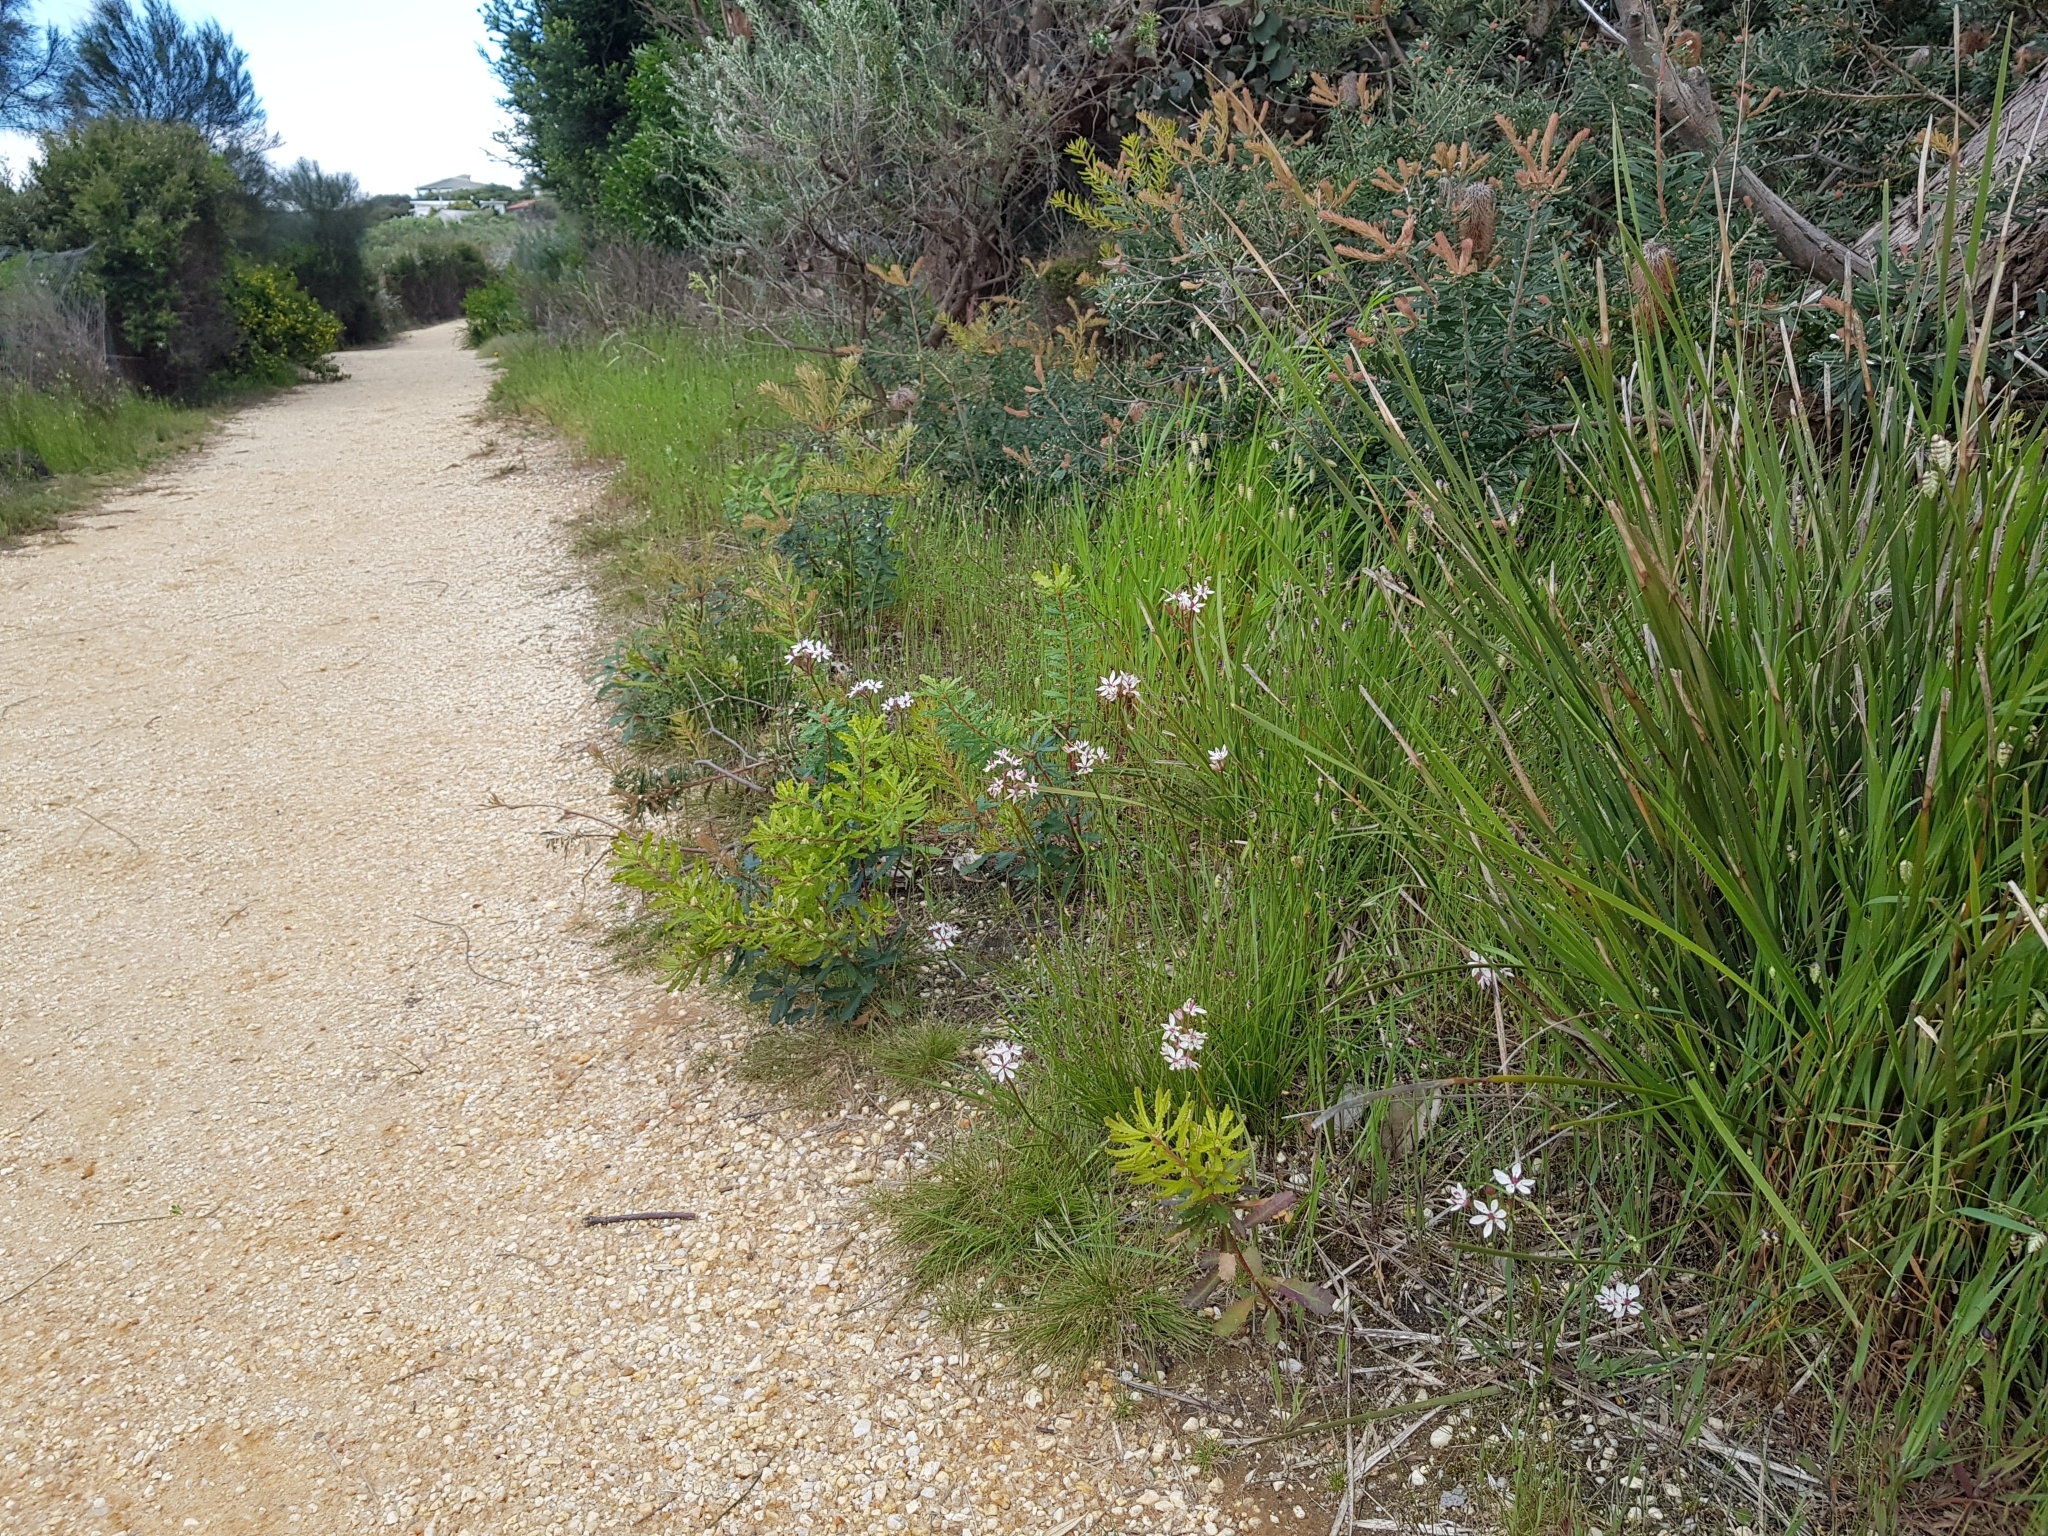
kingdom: Plantae
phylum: Tracheophyta
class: Liliopsida
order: Liliales
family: Colchicaceae
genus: Burchardia
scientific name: Burchardia umbellata
